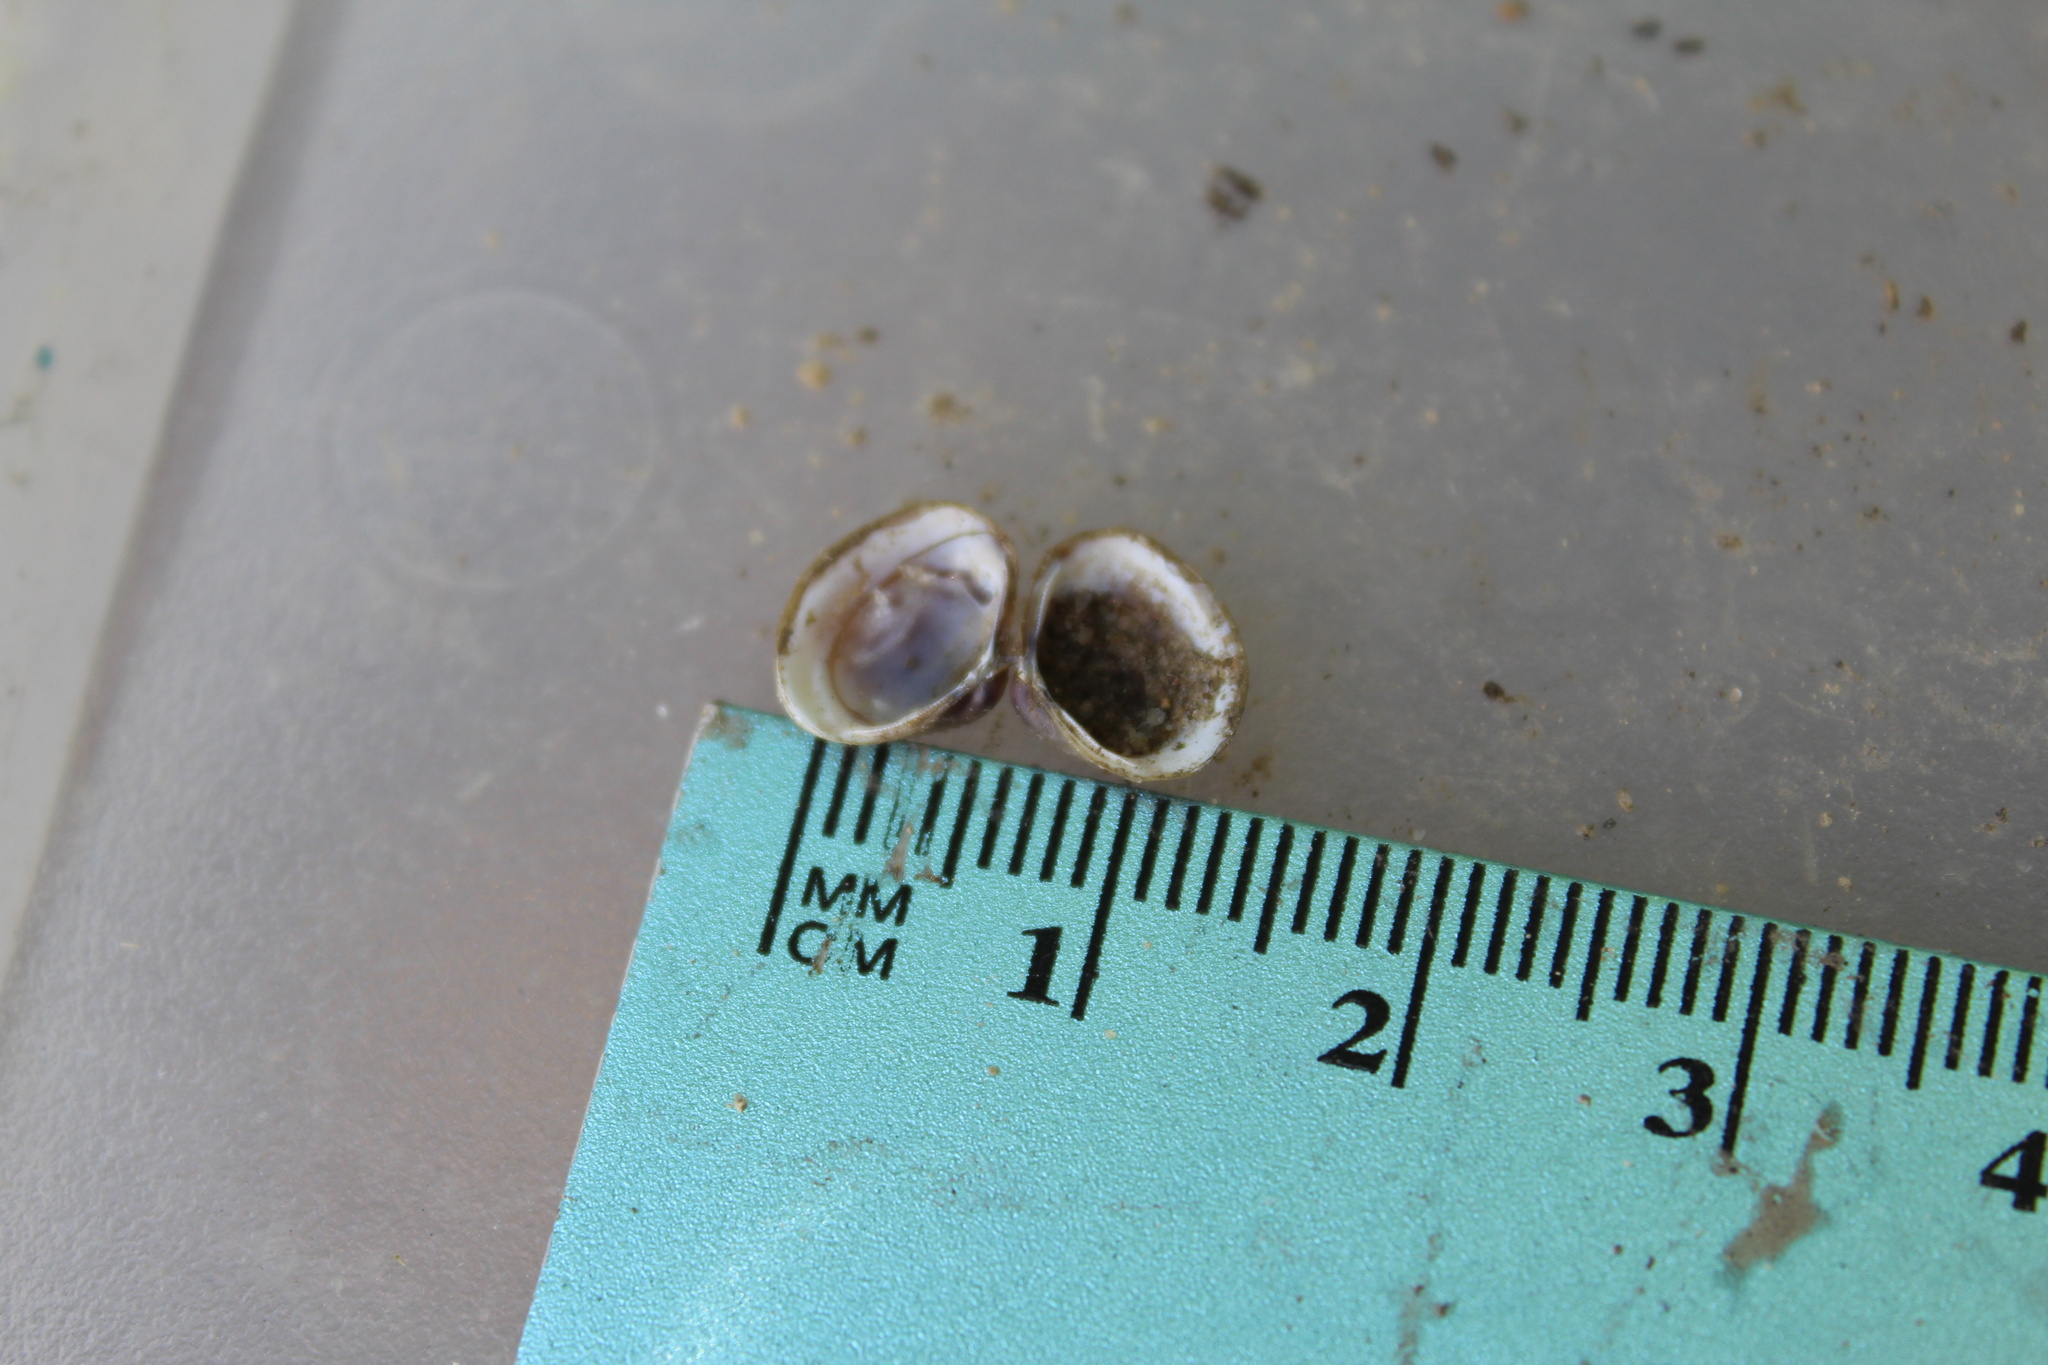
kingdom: Animalia
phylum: Mollusca
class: Bivalvia
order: Venerida
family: Cyrenidae
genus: Corbicula
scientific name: Corbicula fluminea
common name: Asian clam
